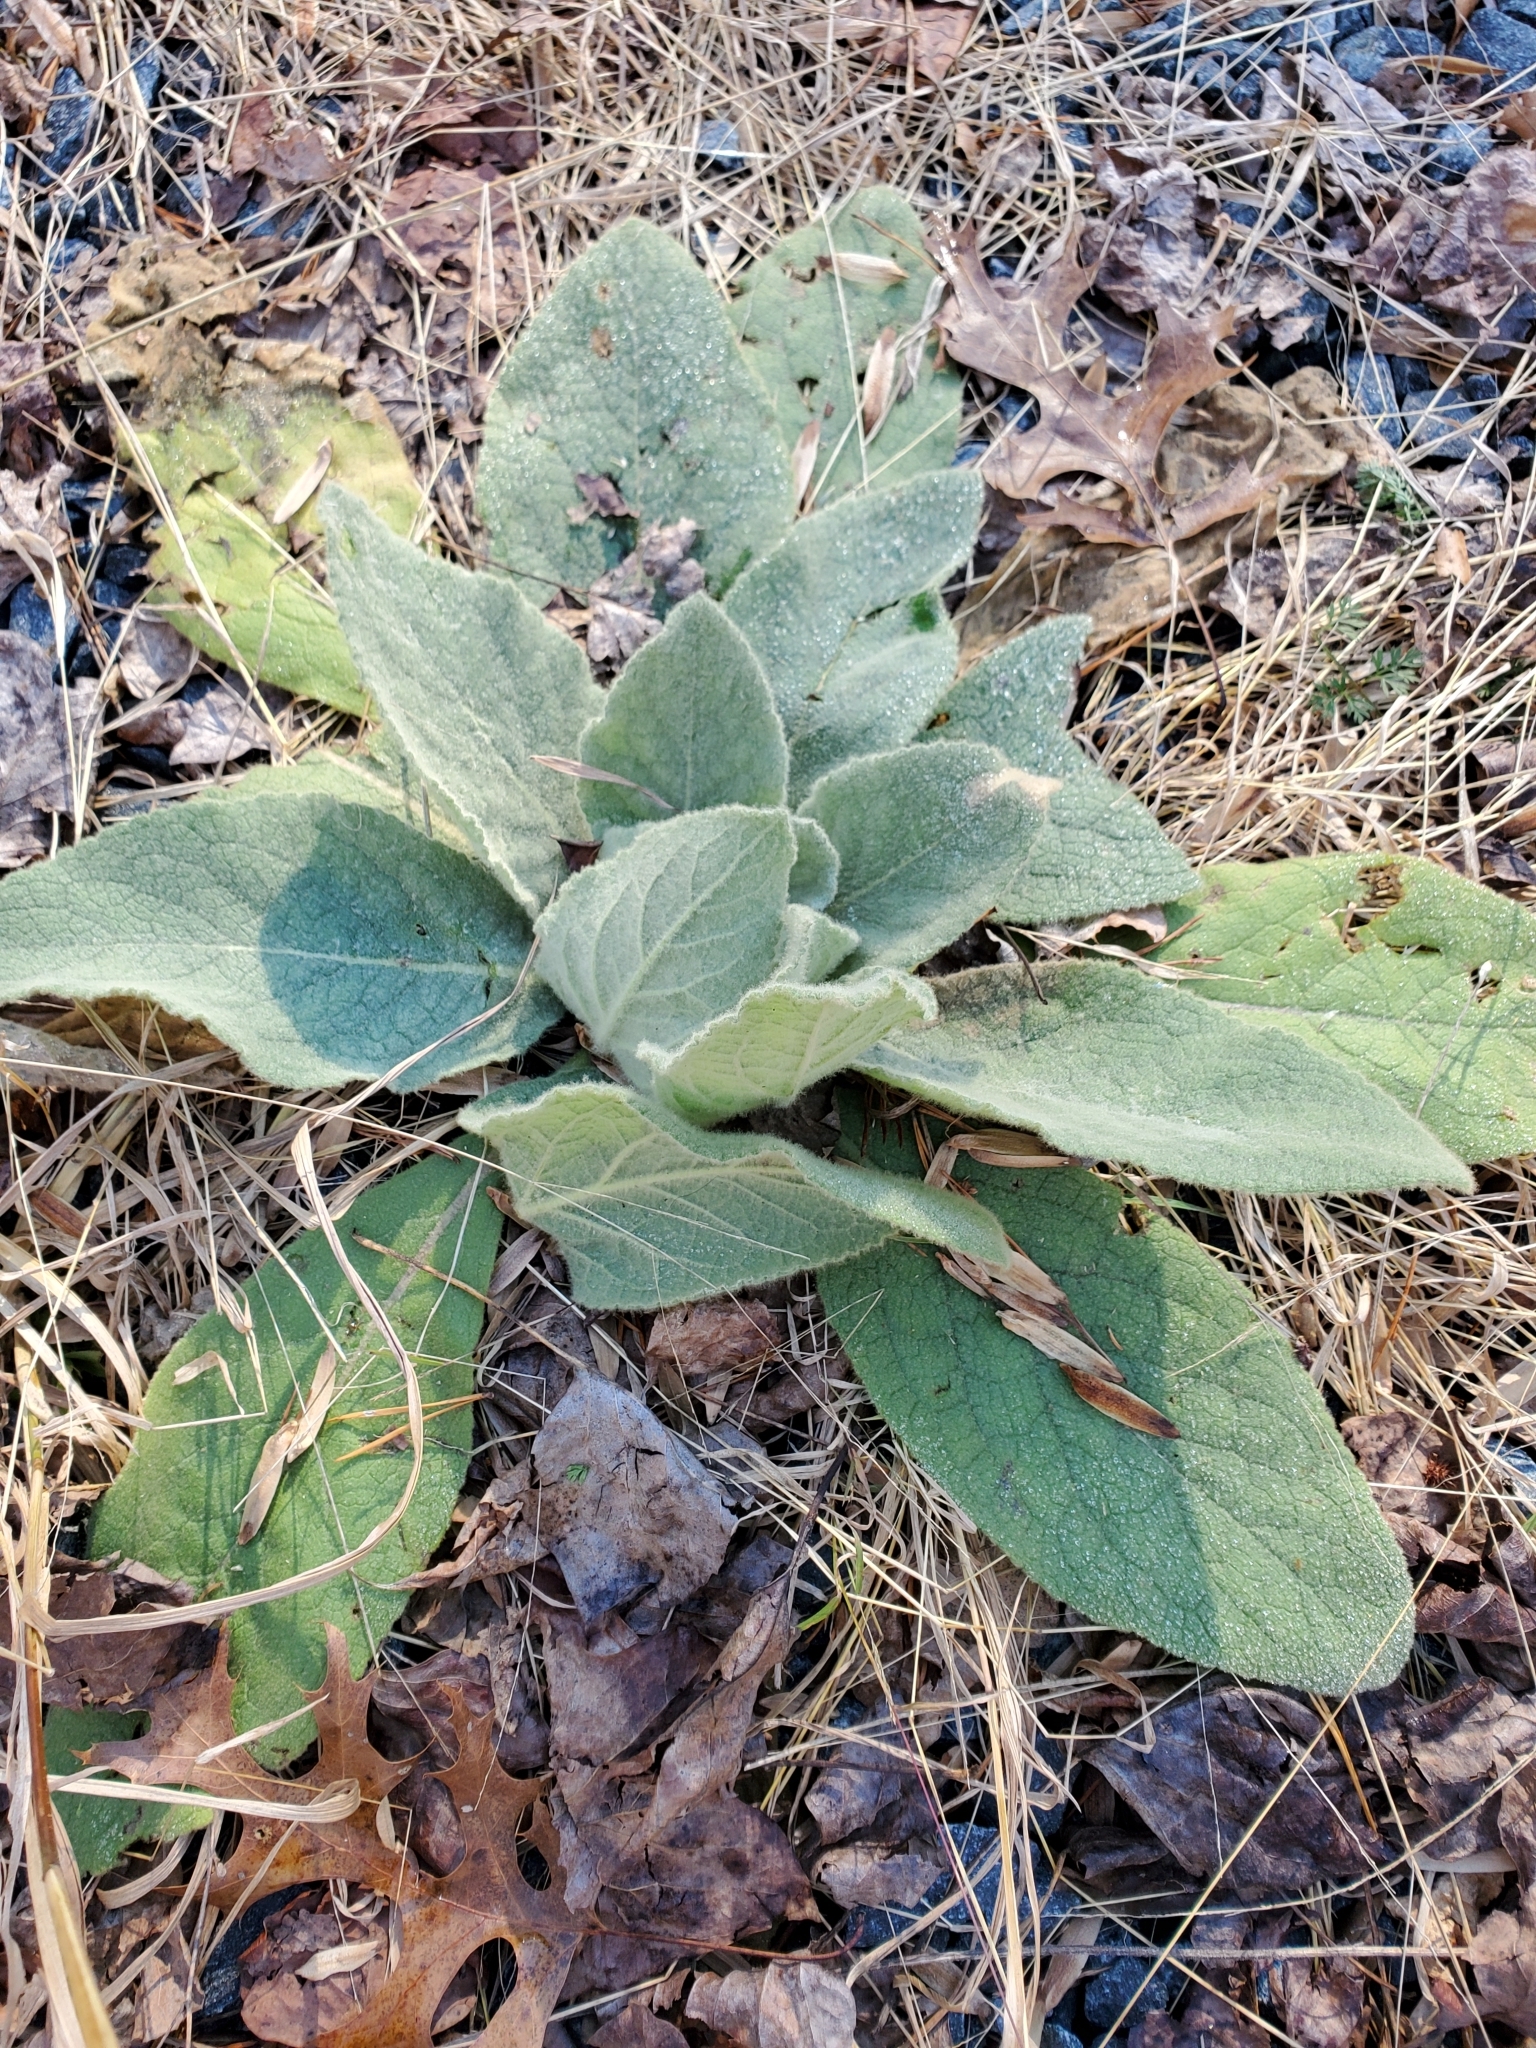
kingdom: Plantae
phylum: Tracheophyta
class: Magnoliopsida
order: Lamiales
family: Scrophulariaceae
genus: Verbascum
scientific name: Verbascum thapsus
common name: Common mullein
